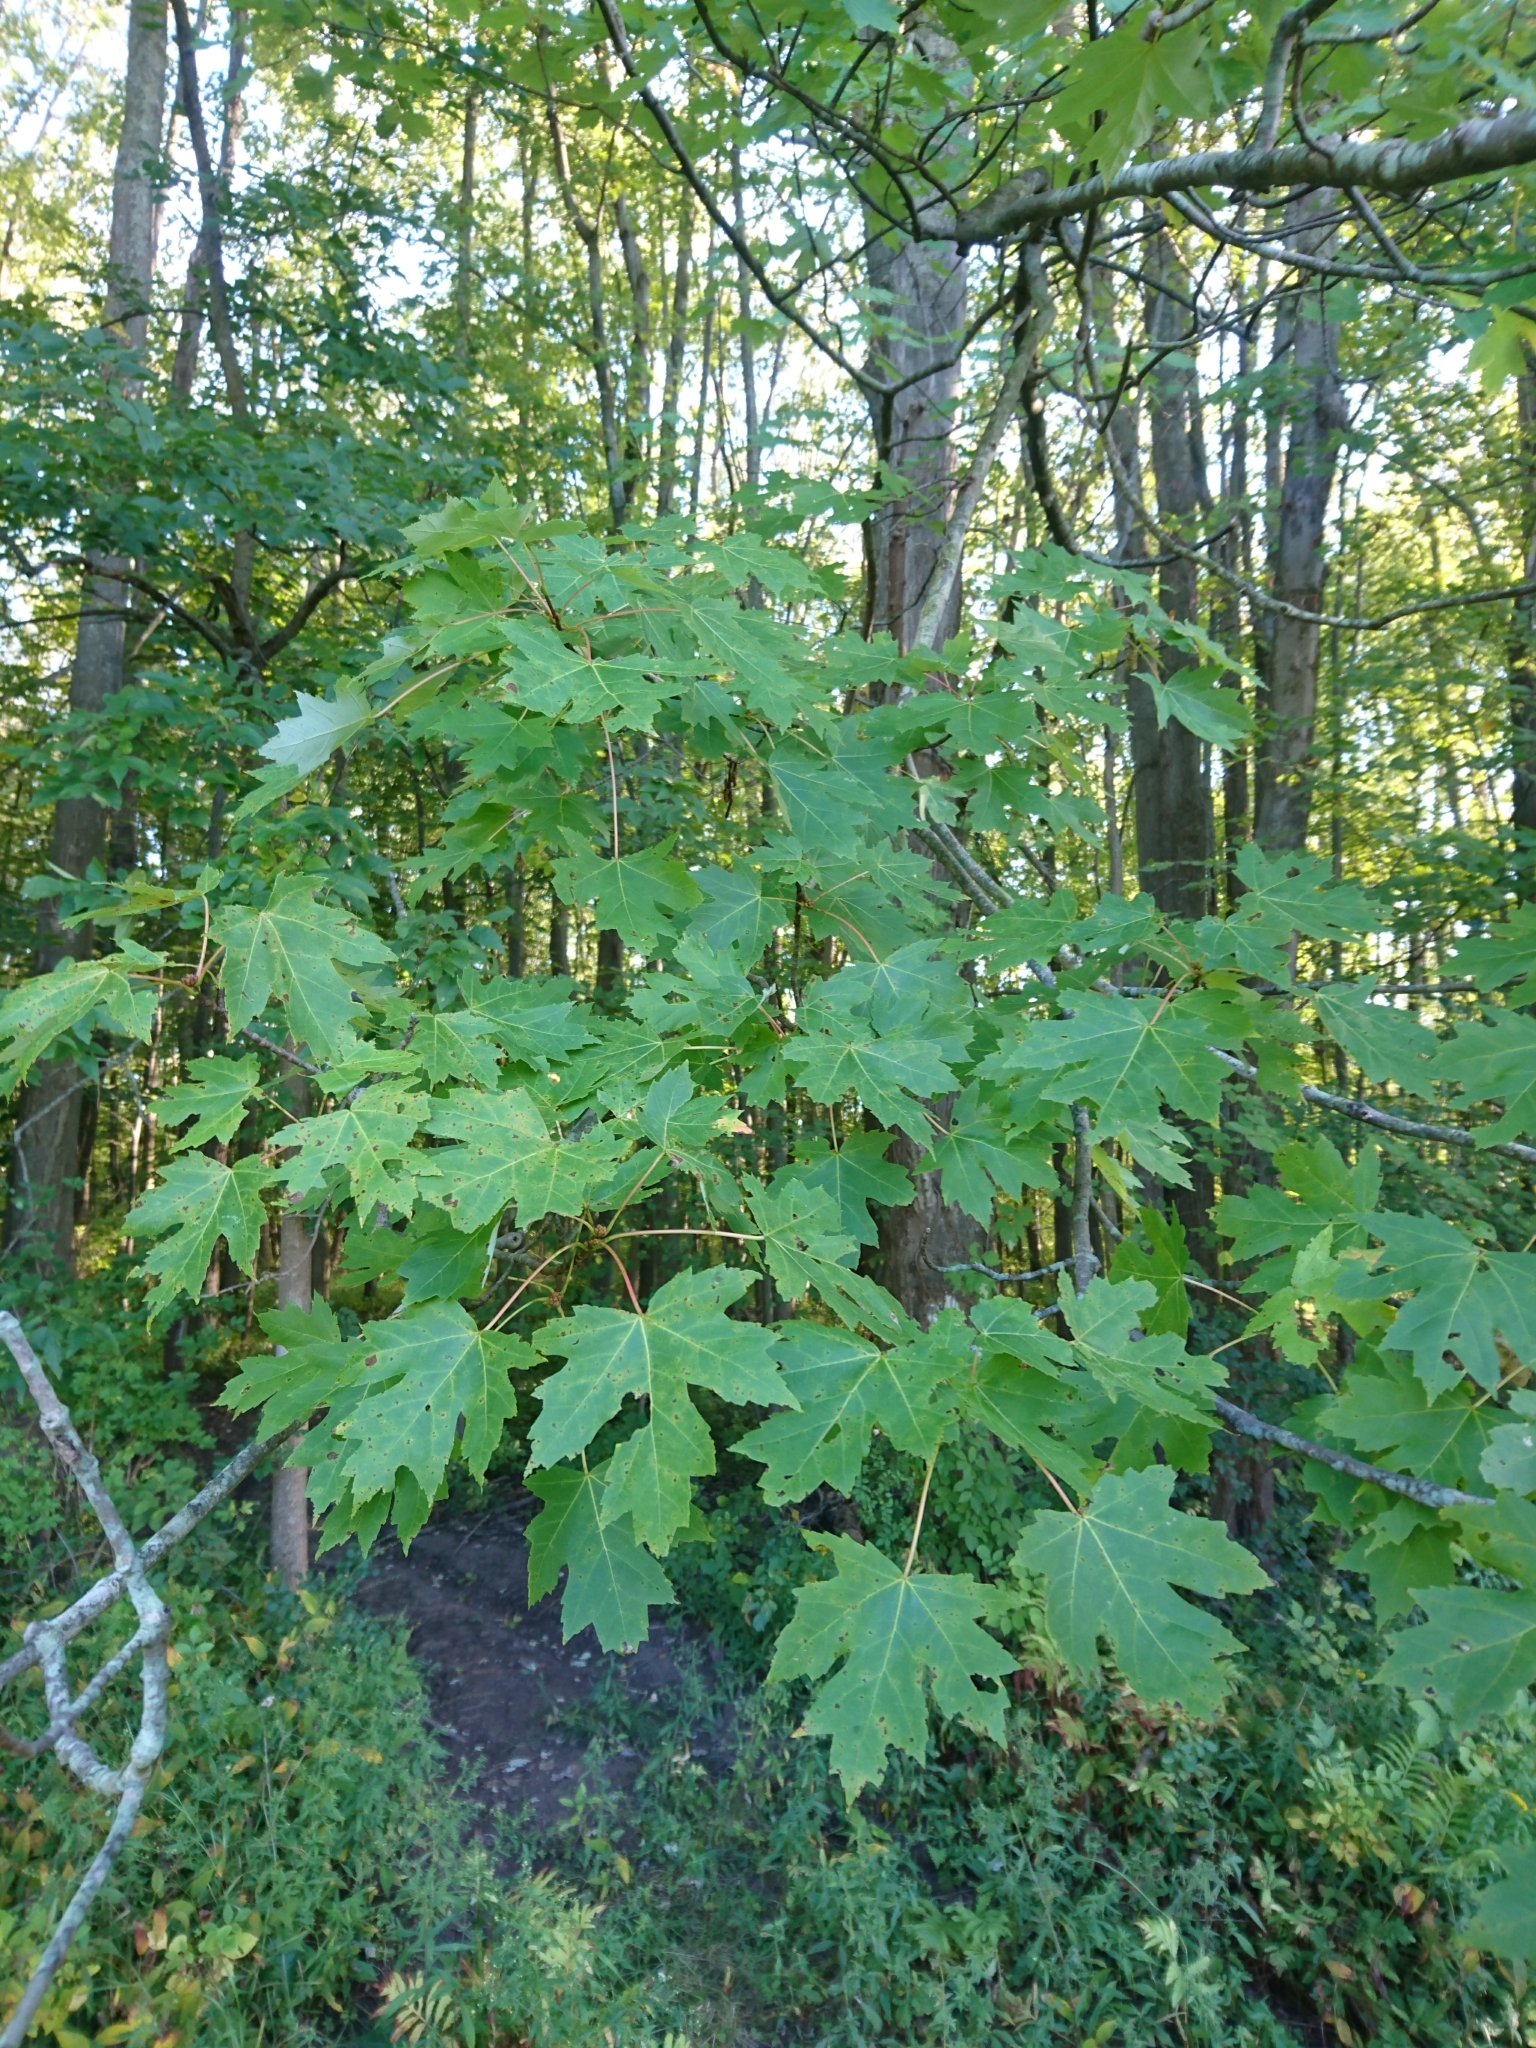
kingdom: Plantae
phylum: Tracheophyta
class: Magnoliopsida
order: Sapindales
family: Sapindaceae
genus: Acer
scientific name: Acer saccharinum
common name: Silver maple
